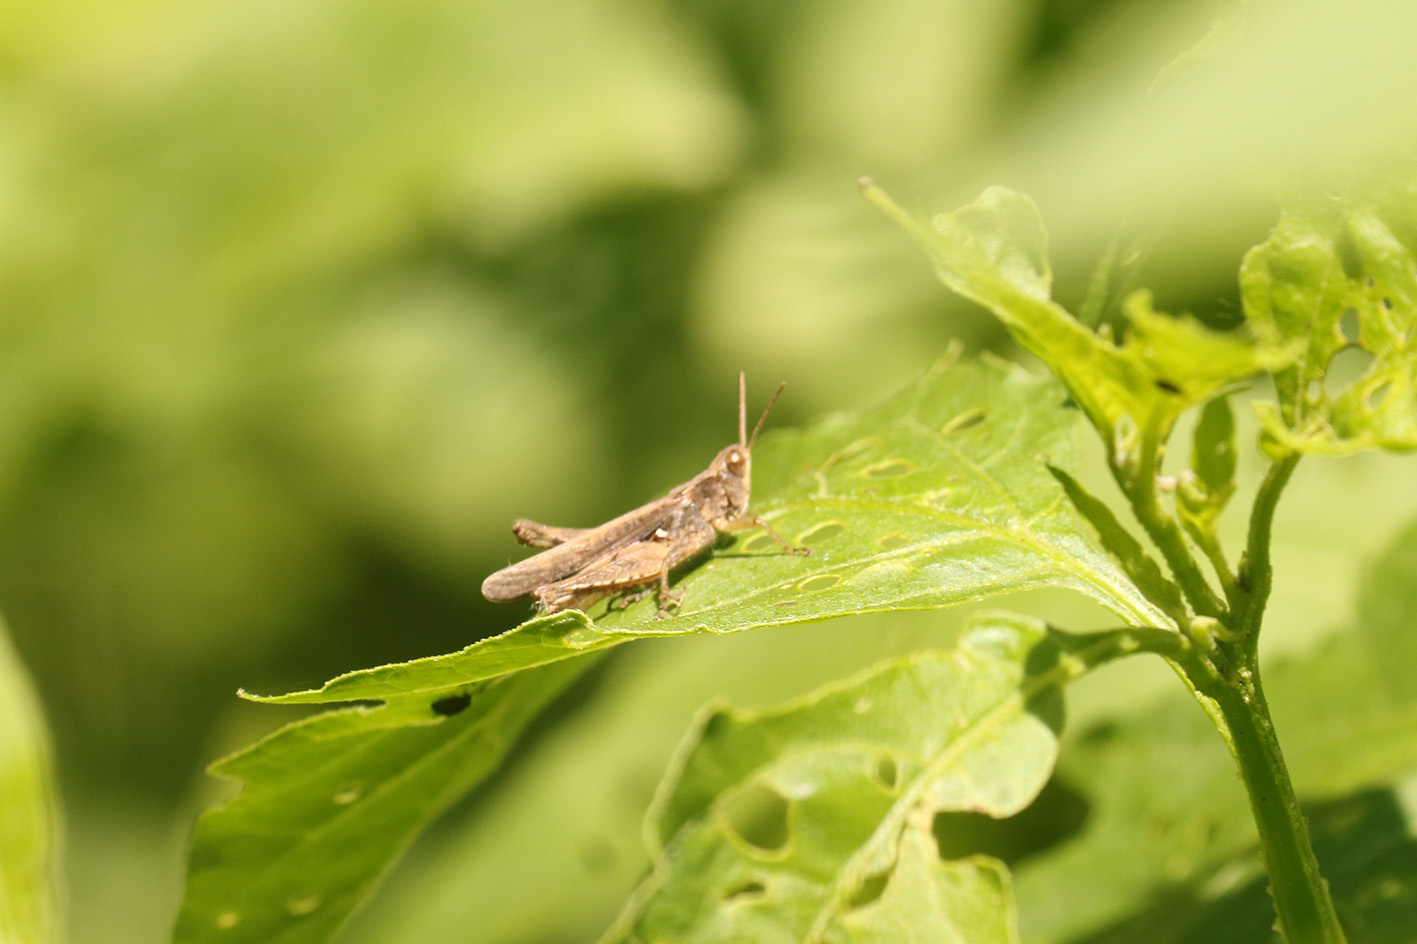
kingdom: Animalia
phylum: Arthropoda
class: Insecta
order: Orthoptera
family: Acrididae
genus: Orphulella
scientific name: Orphulella punctata
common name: Slant-faced grasshopper
